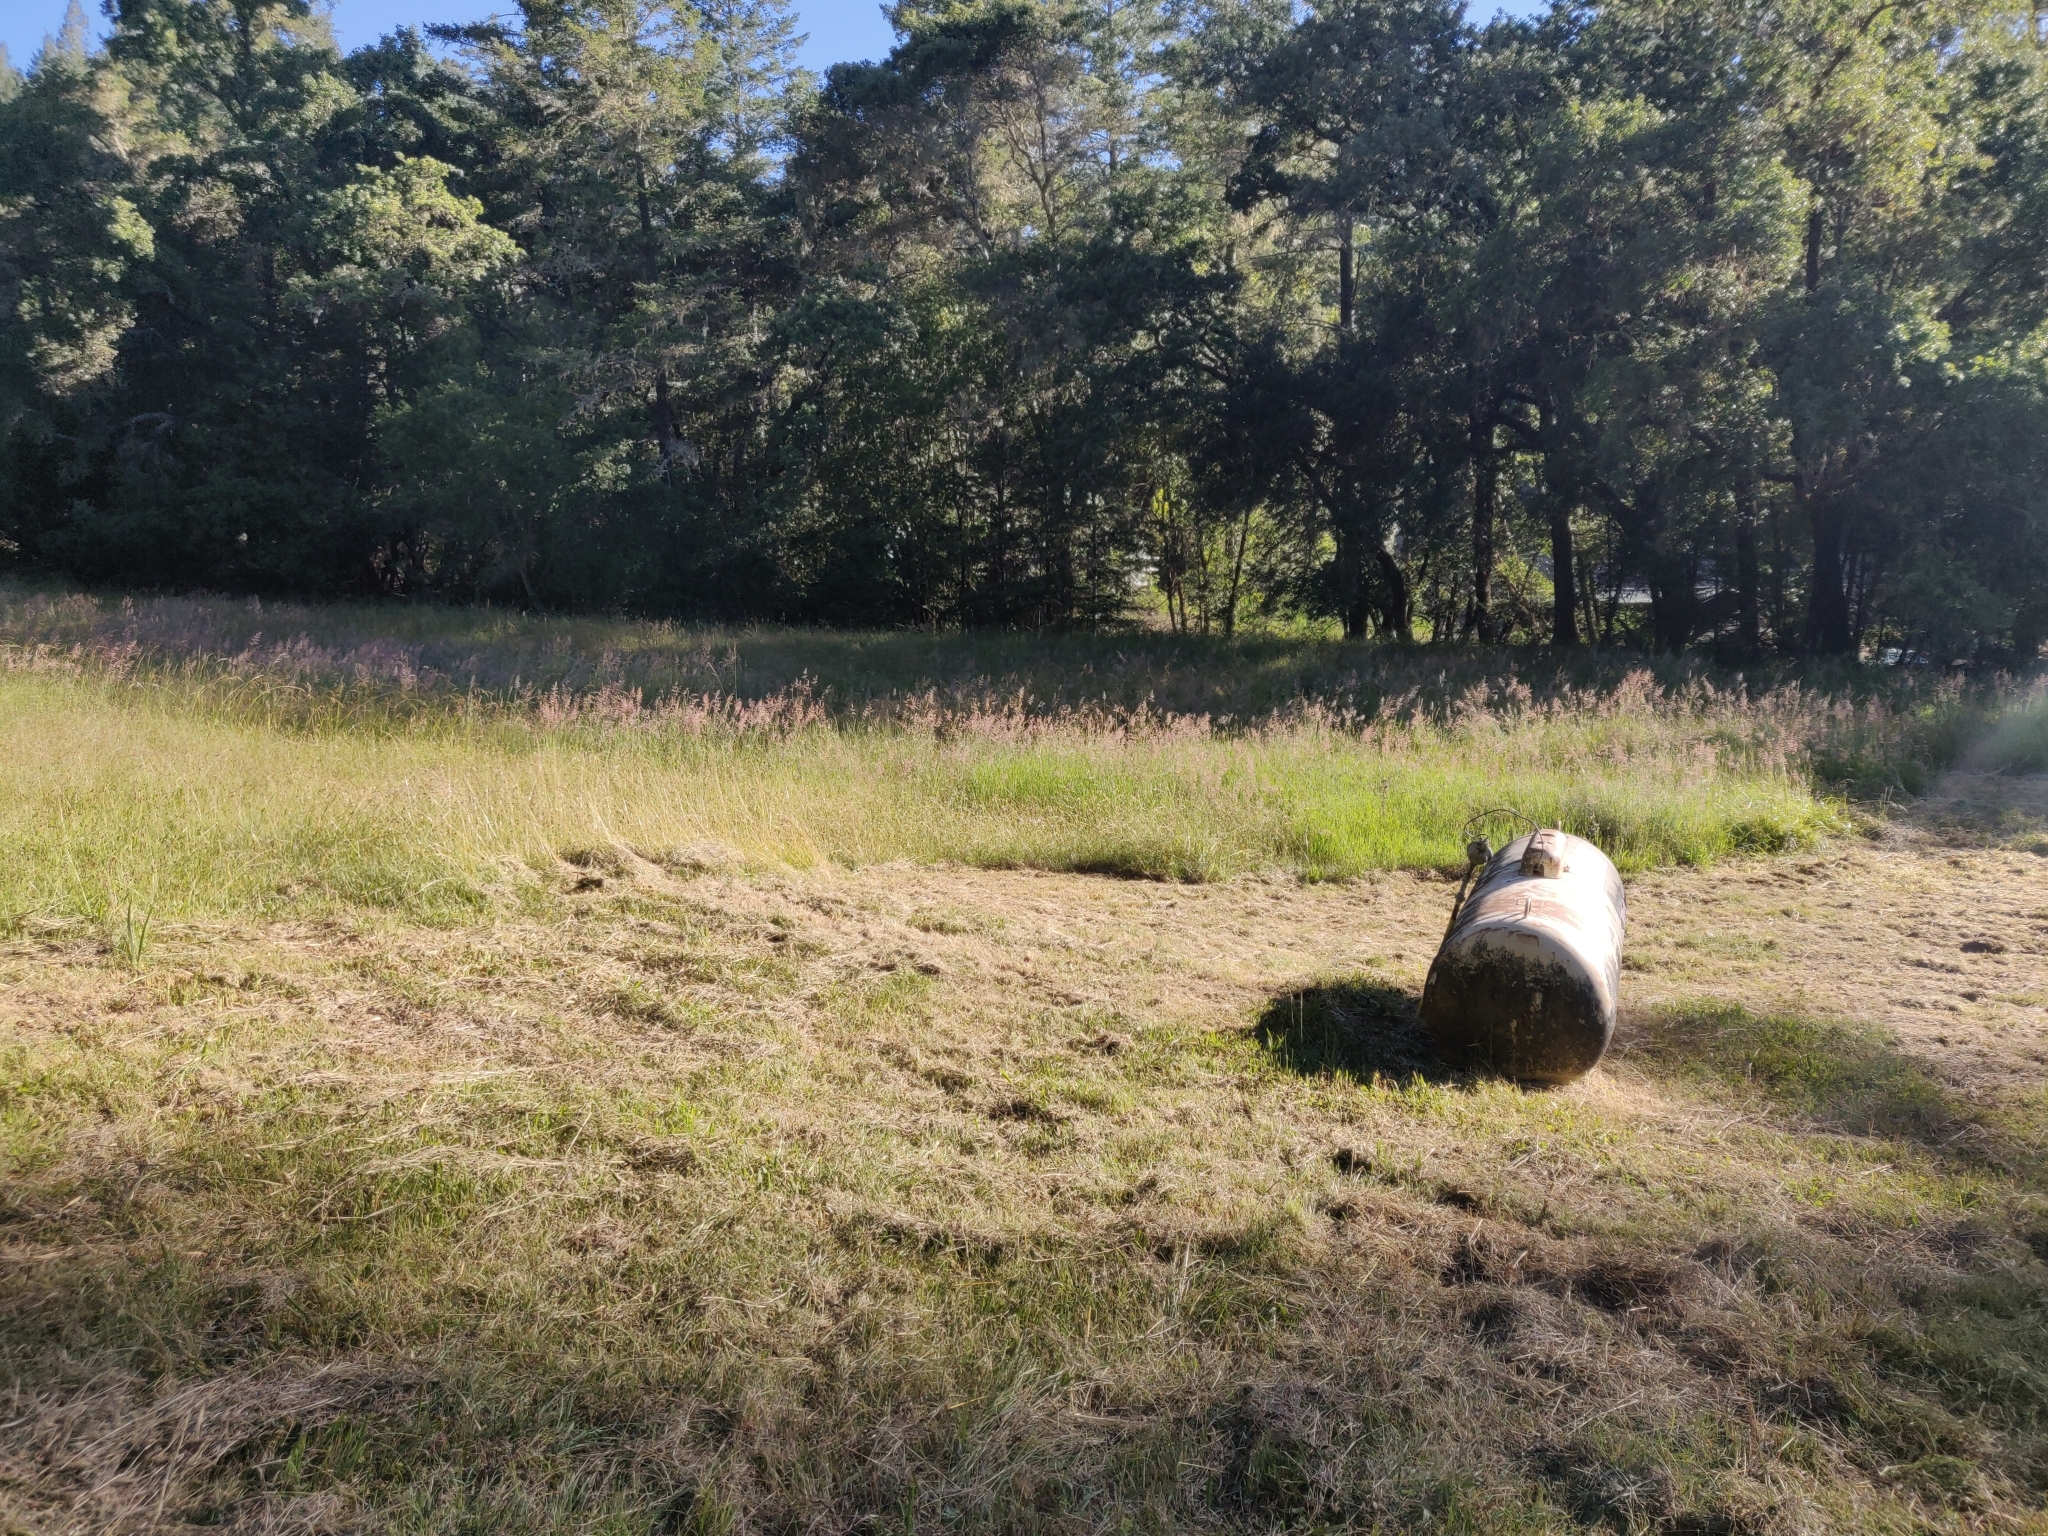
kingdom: Plantae
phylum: Tracheophyta
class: Liliopsida
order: Poales
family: Poaceae
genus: Holcus
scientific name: Holcus lanatus
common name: Yorkshire-fog
